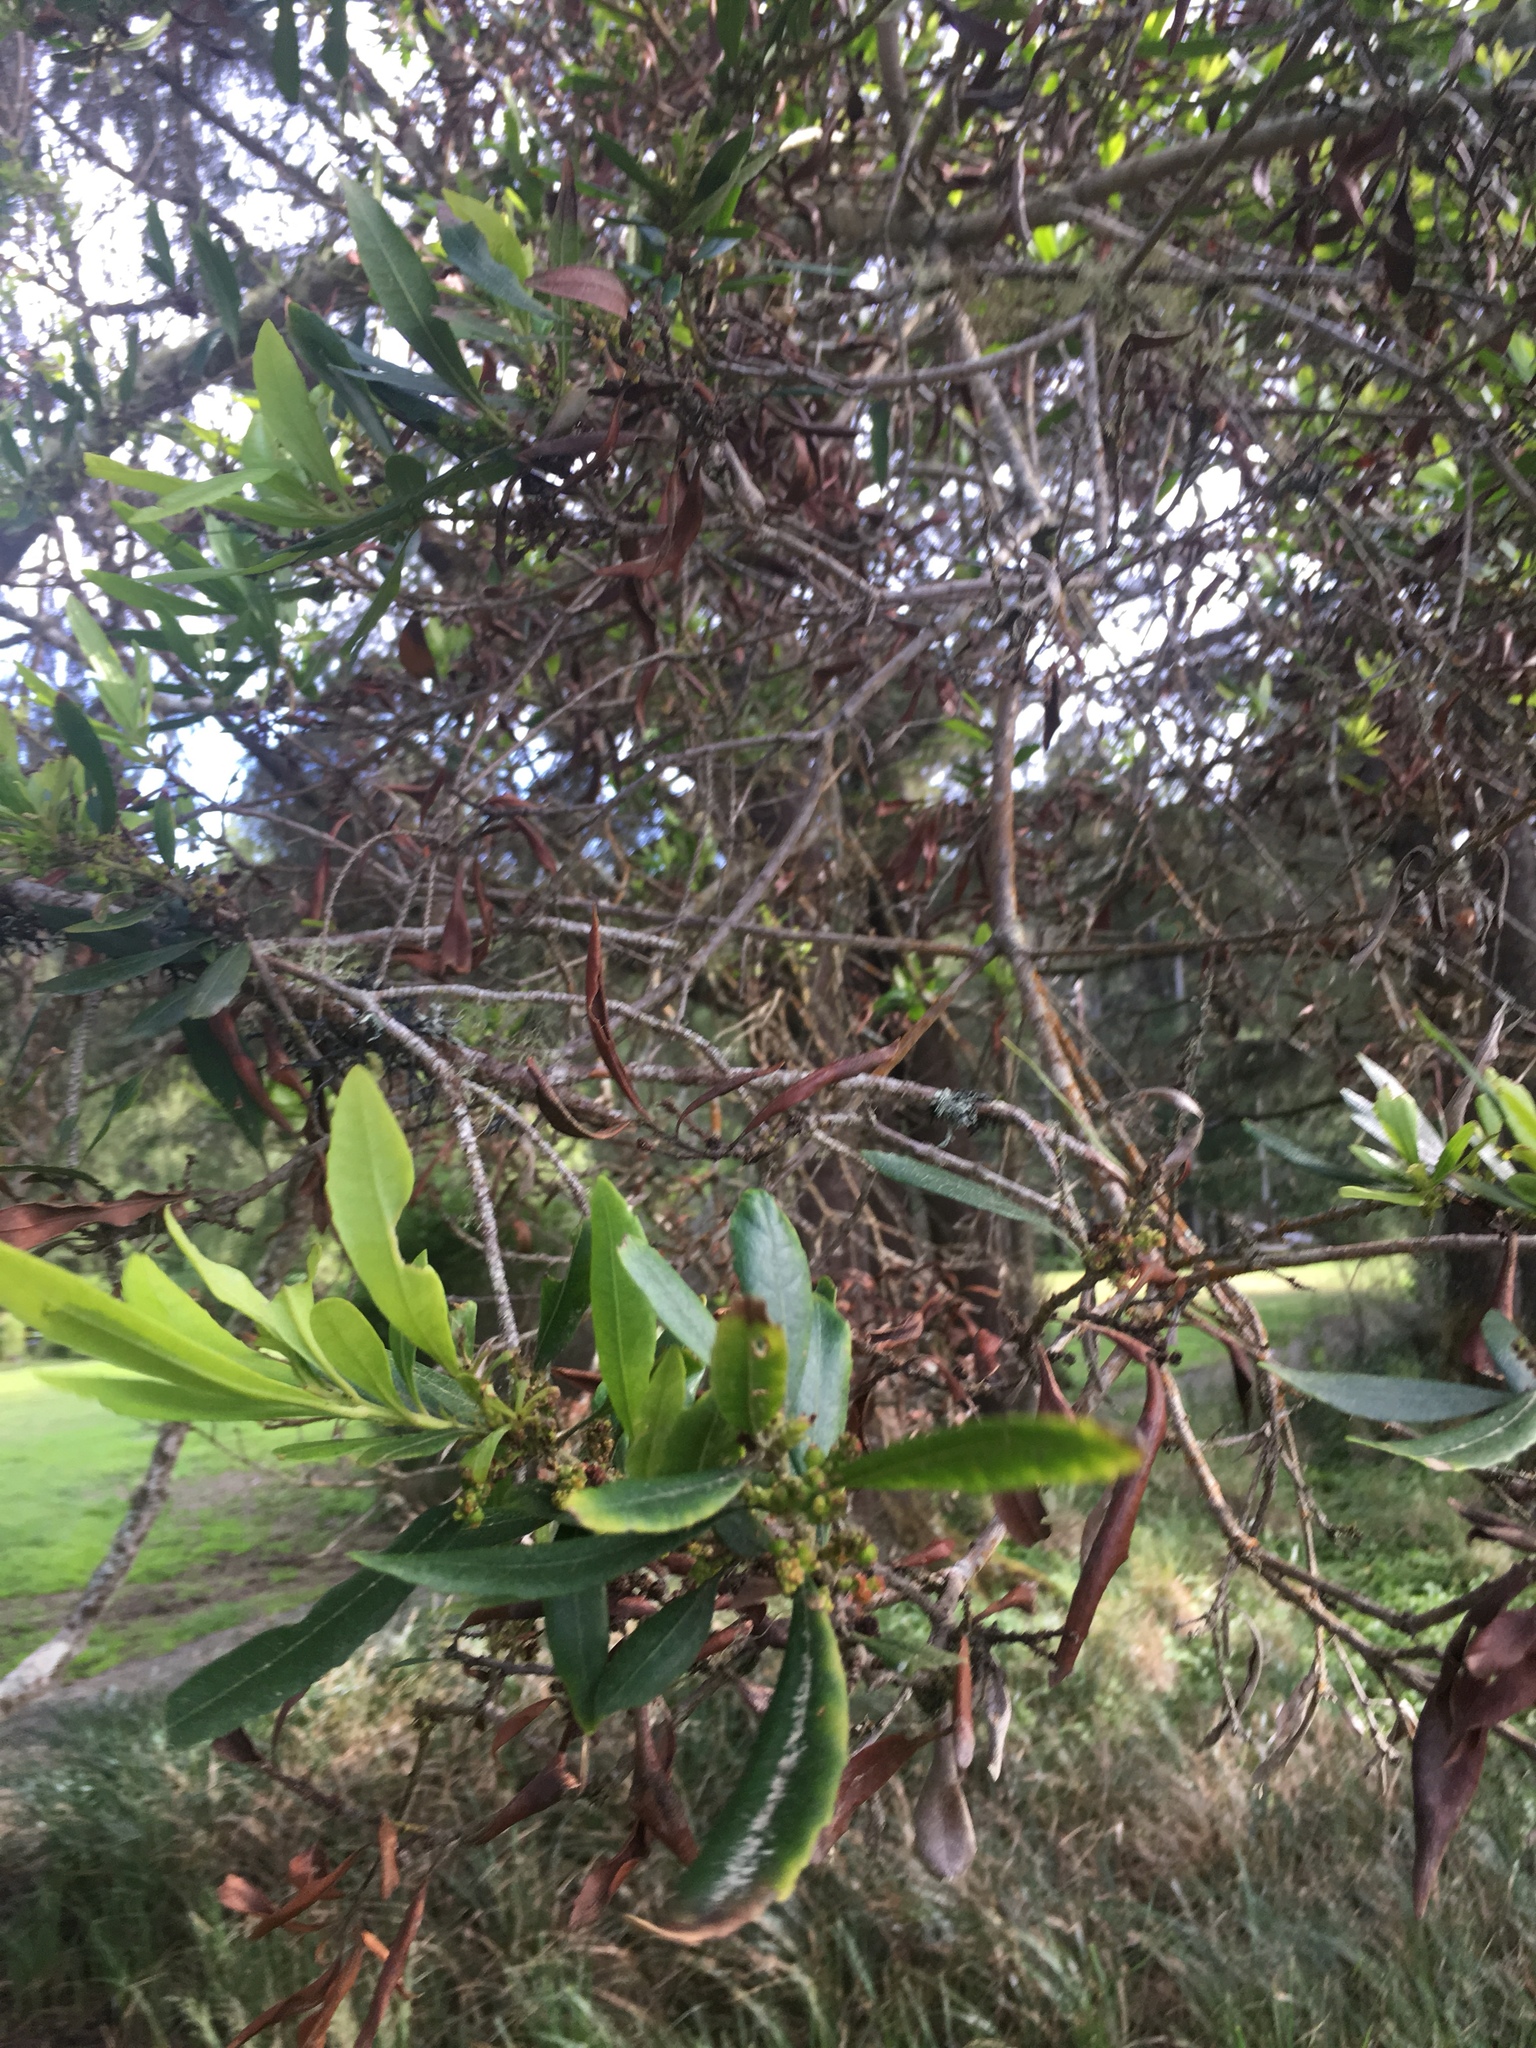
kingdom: Plantae
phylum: Tracheophyta
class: Magnoliopsida
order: Fagales
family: Myricaceae
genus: Morella
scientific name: Morella californica
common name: California wax-myrtle
